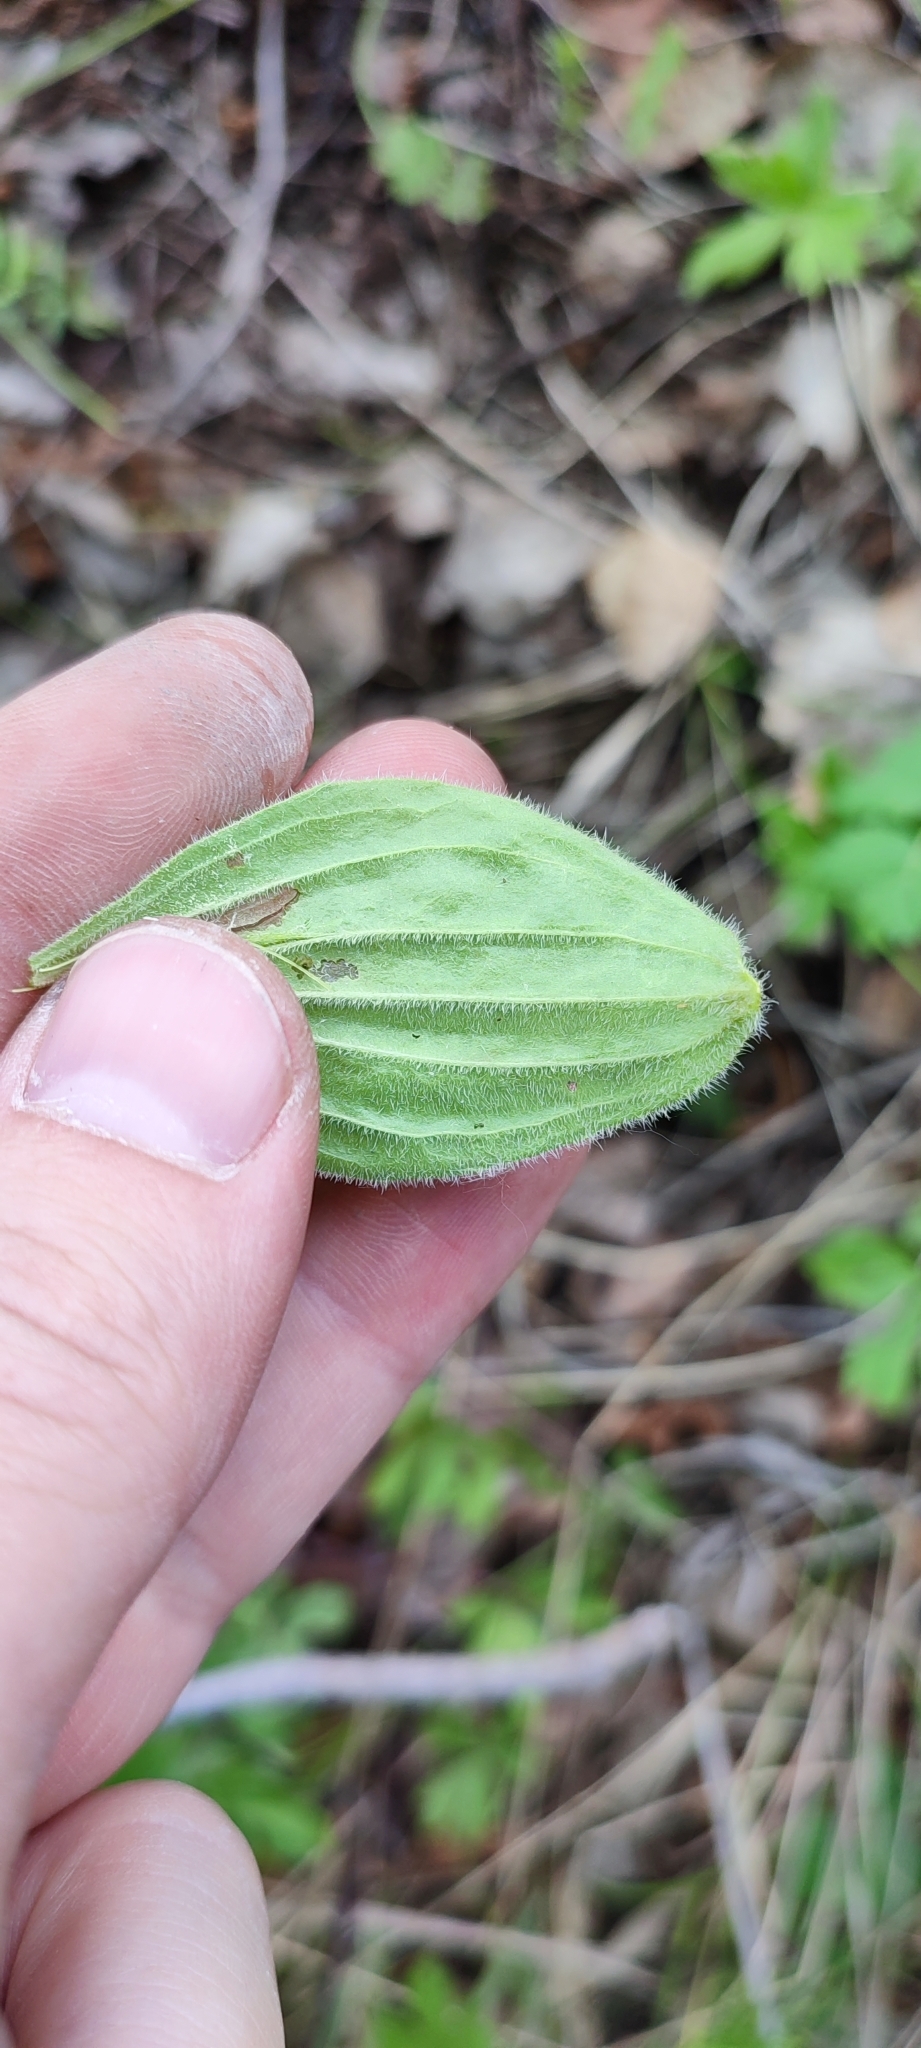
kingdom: Plantae
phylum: Tracheophyta
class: Magnoliopsida
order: Lamiales
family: Plantaginaceae
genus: Plantago
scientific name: Plantago media
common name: Hoary plantain
